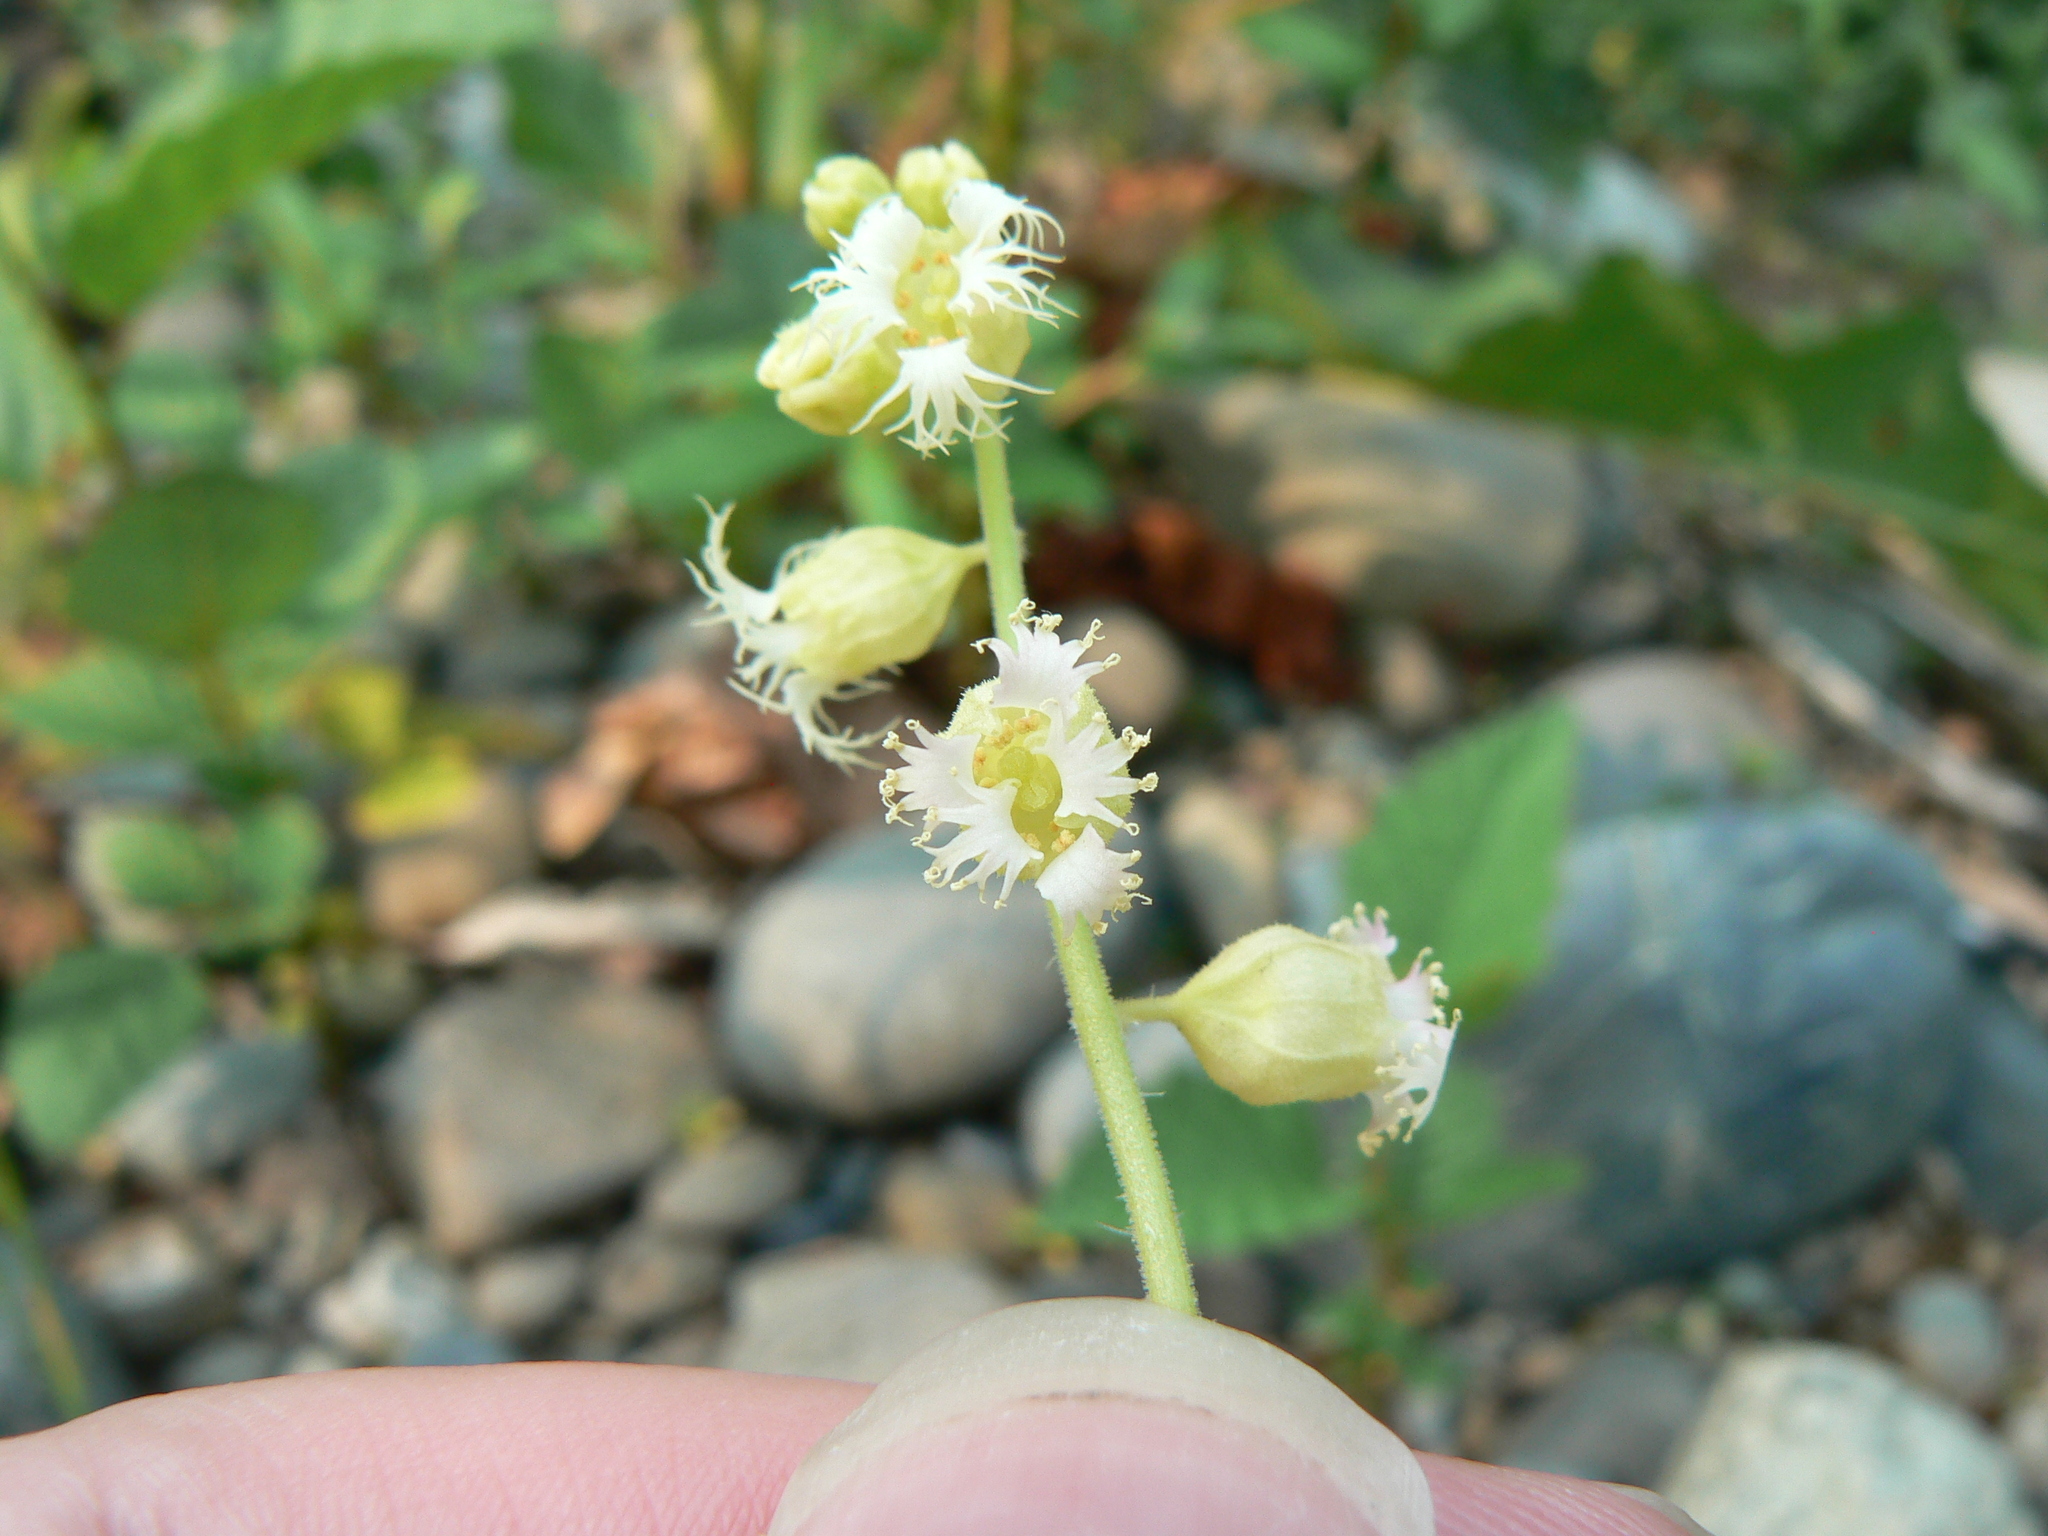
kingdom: Plantae
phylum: Tracheophyta
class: Magnoliopsida
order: Saxifragales
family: Saxifragaceae
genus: Tellima
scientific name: Tellima grandiflora
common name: Fringecups
